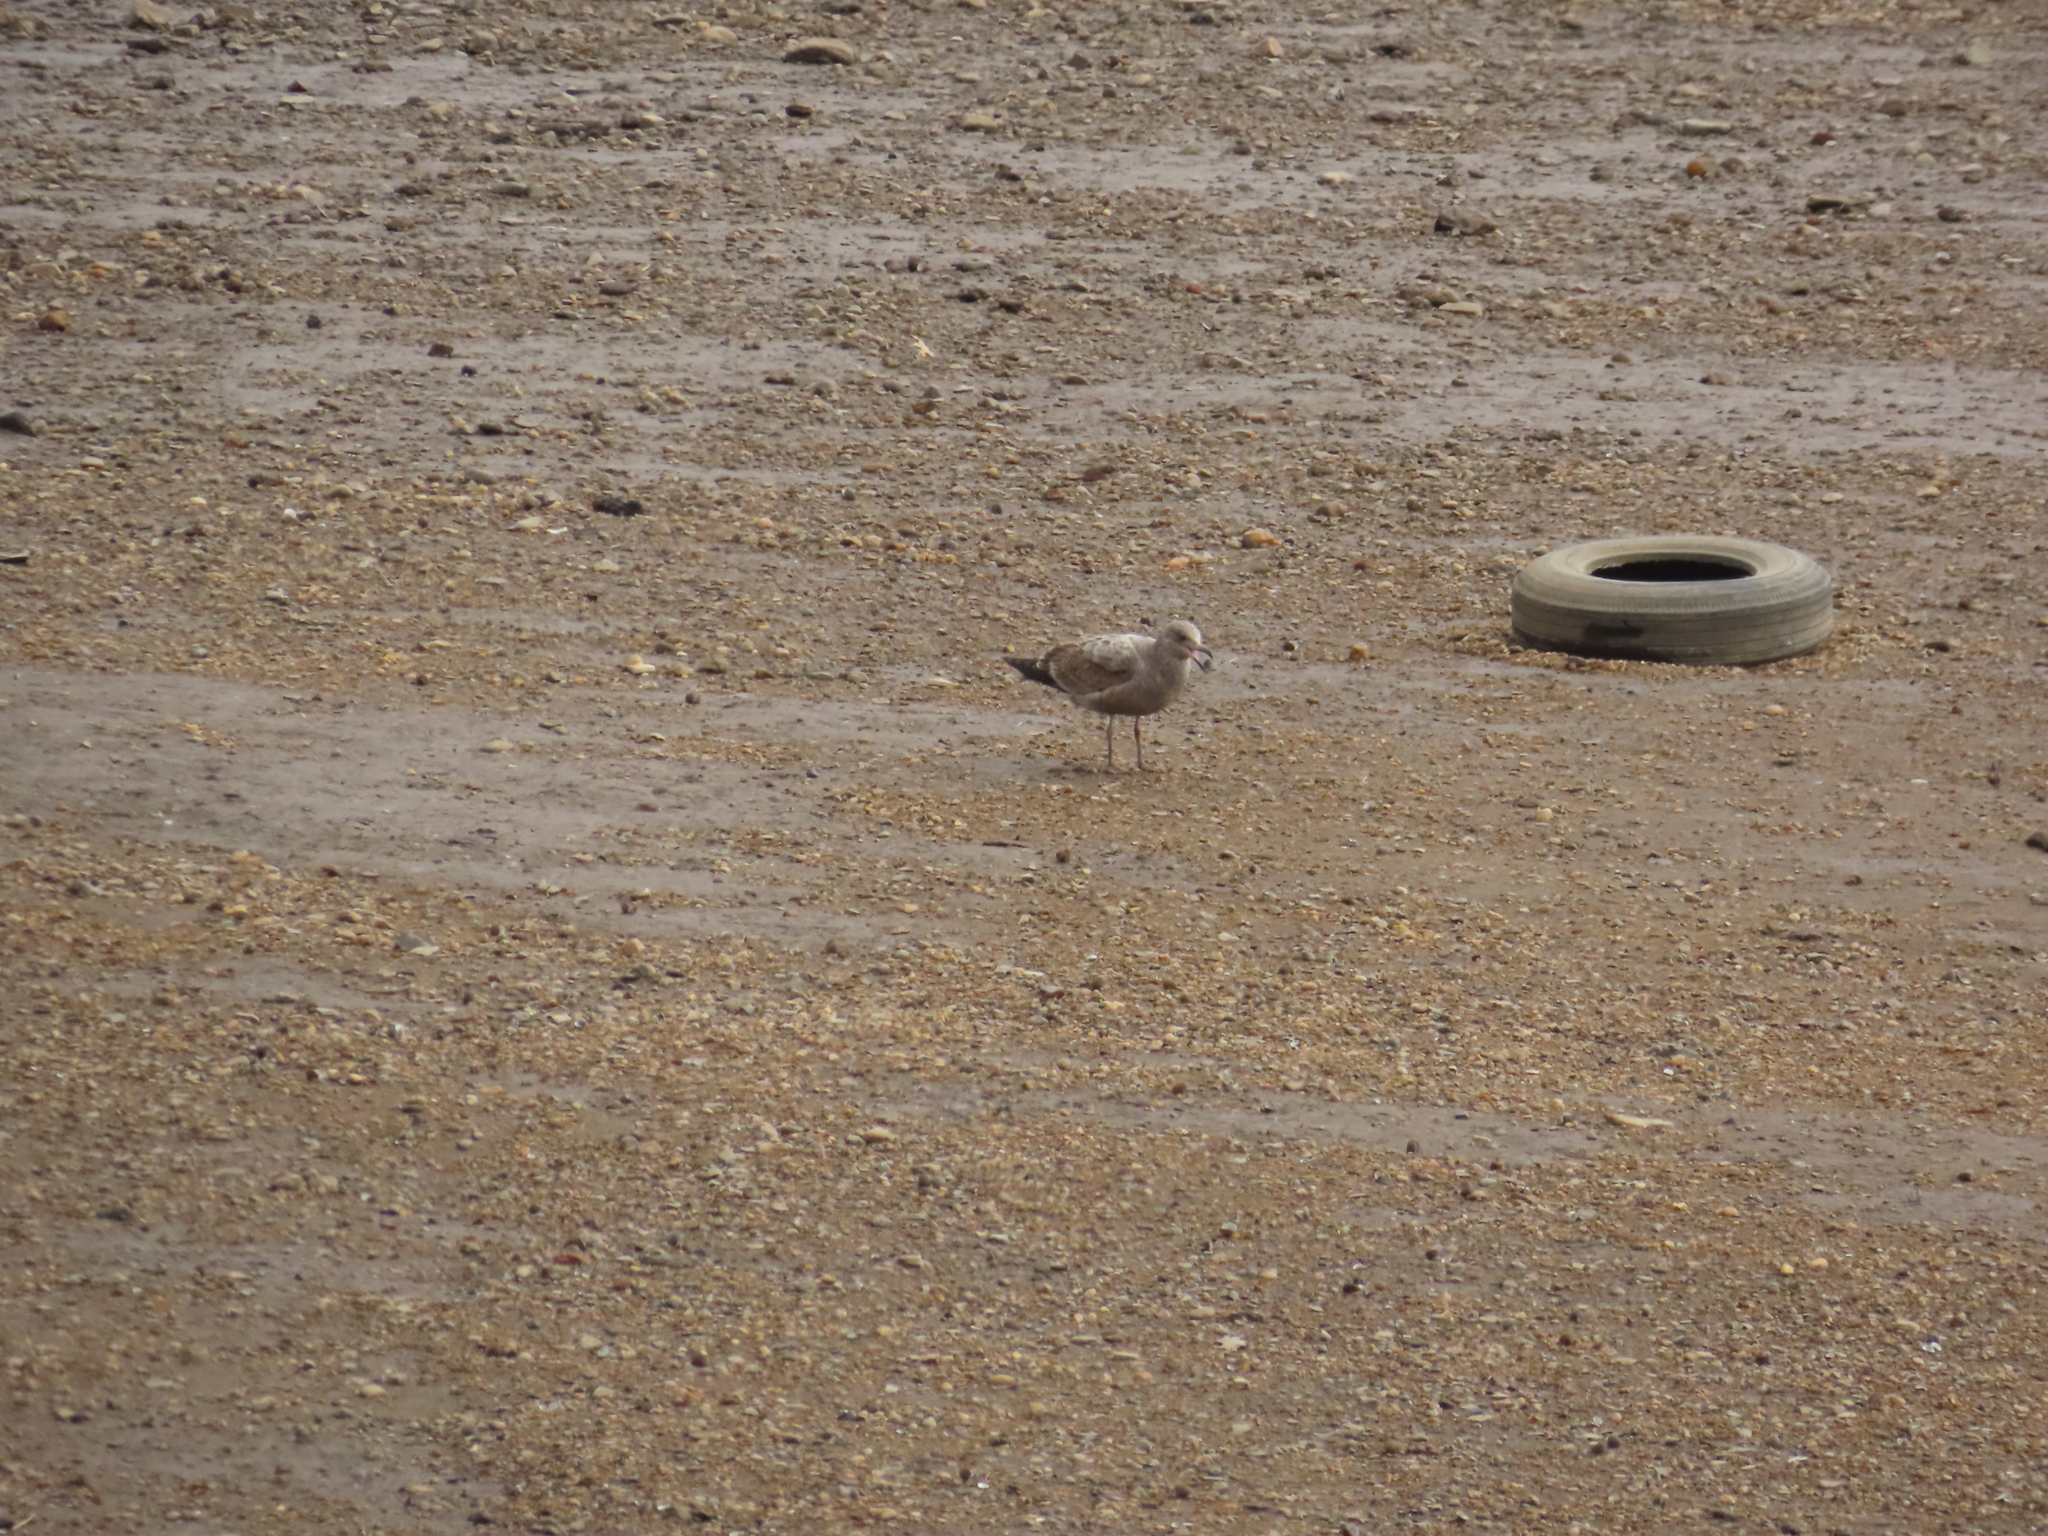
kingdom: Animalia
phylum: Chordata
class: Aves
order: Charadriiformes
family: Laridae
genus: Larus
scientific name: Larus argentatus
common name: Herring gull
